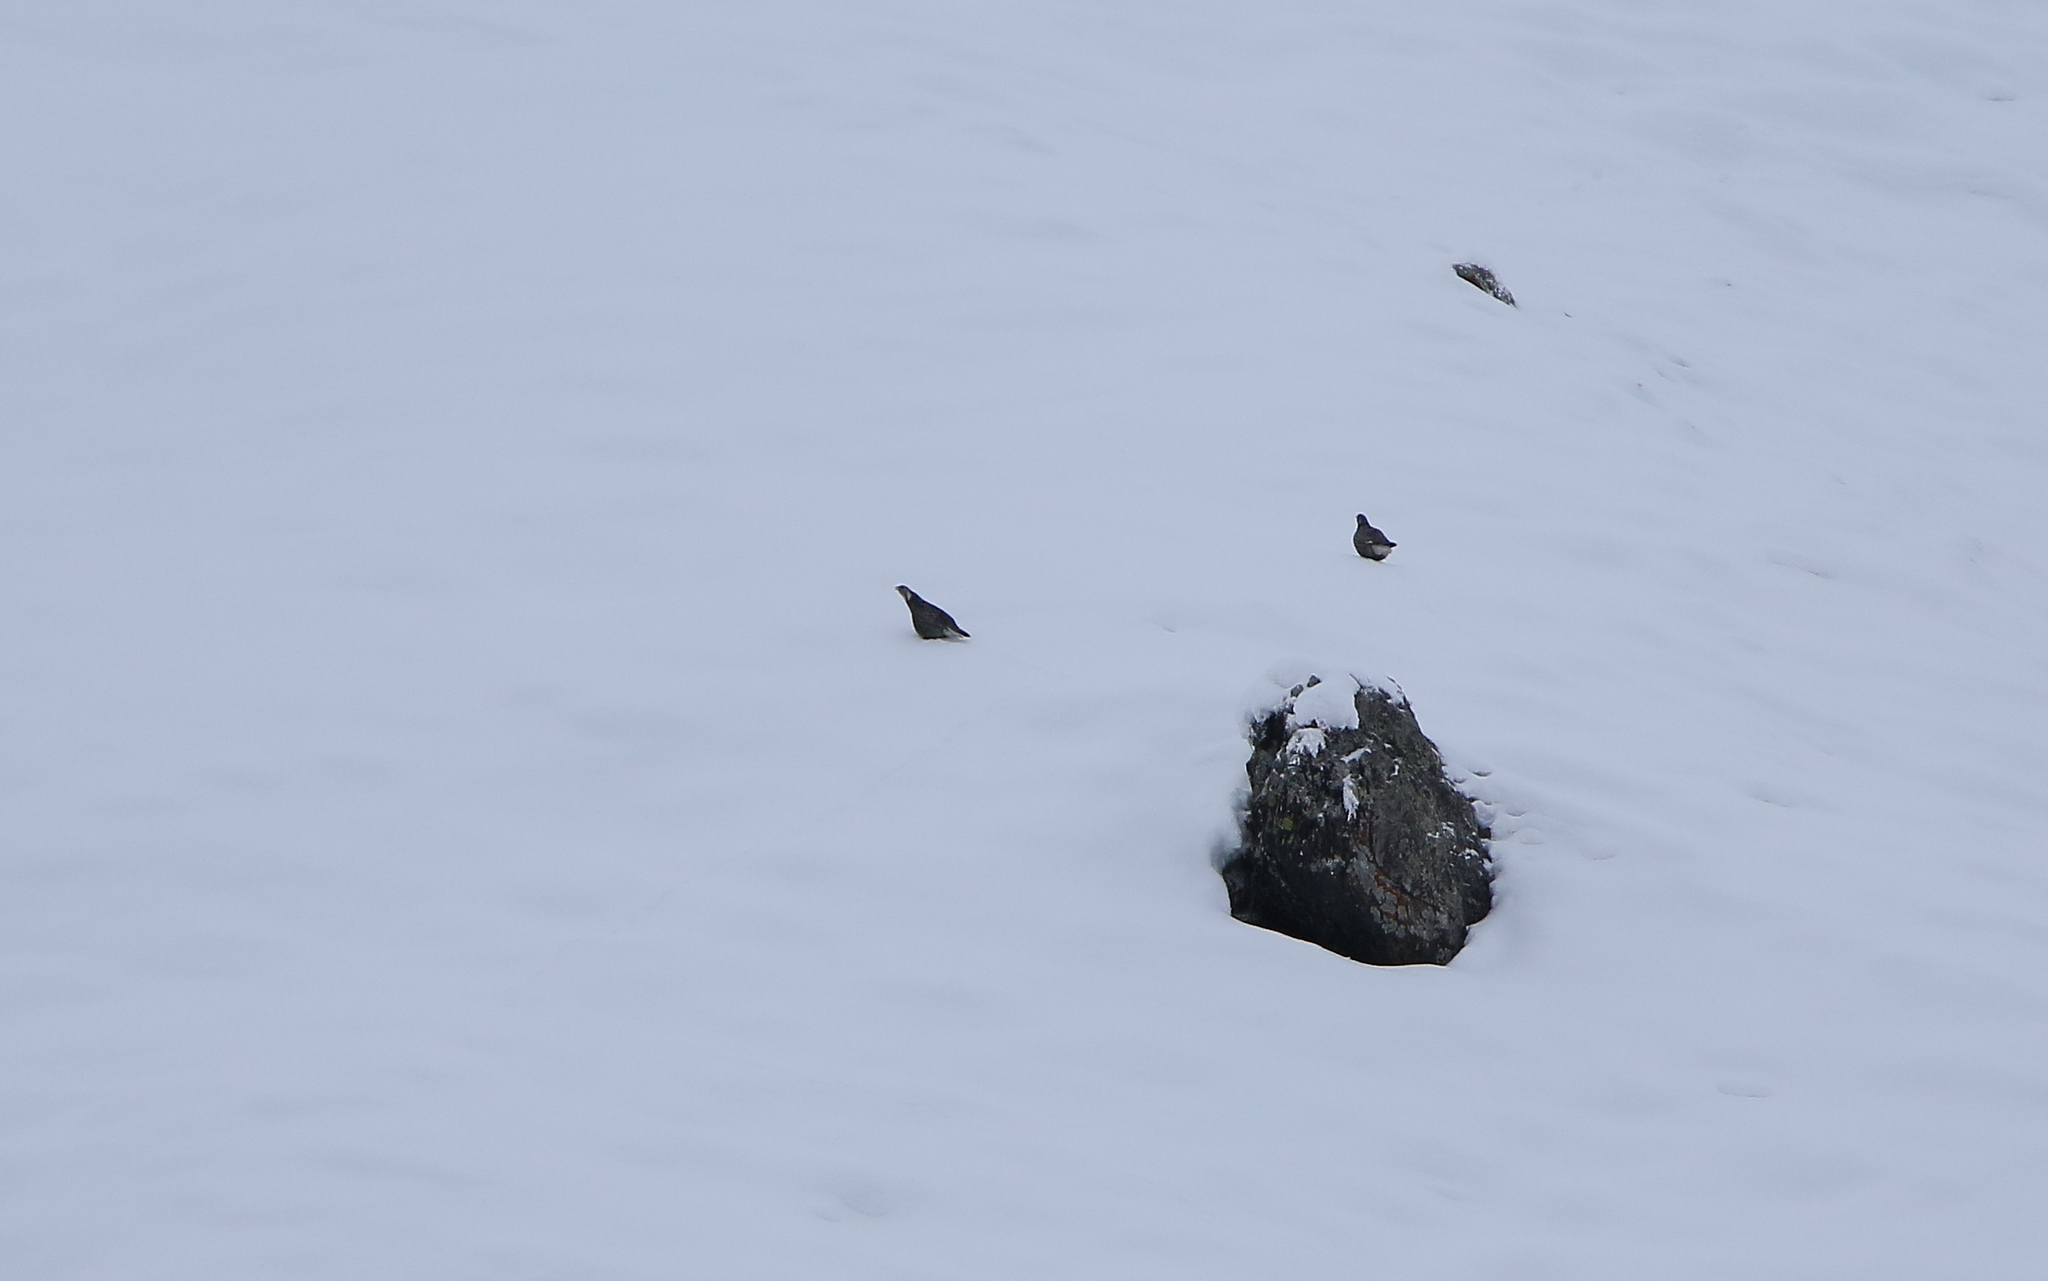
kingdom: Animalia
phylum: Chordata
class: Aves
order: Galliformes
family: Phasianidae
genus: Tetraogallus
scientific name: Tetraogallus caucasicus
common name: Caucasian snowcock
